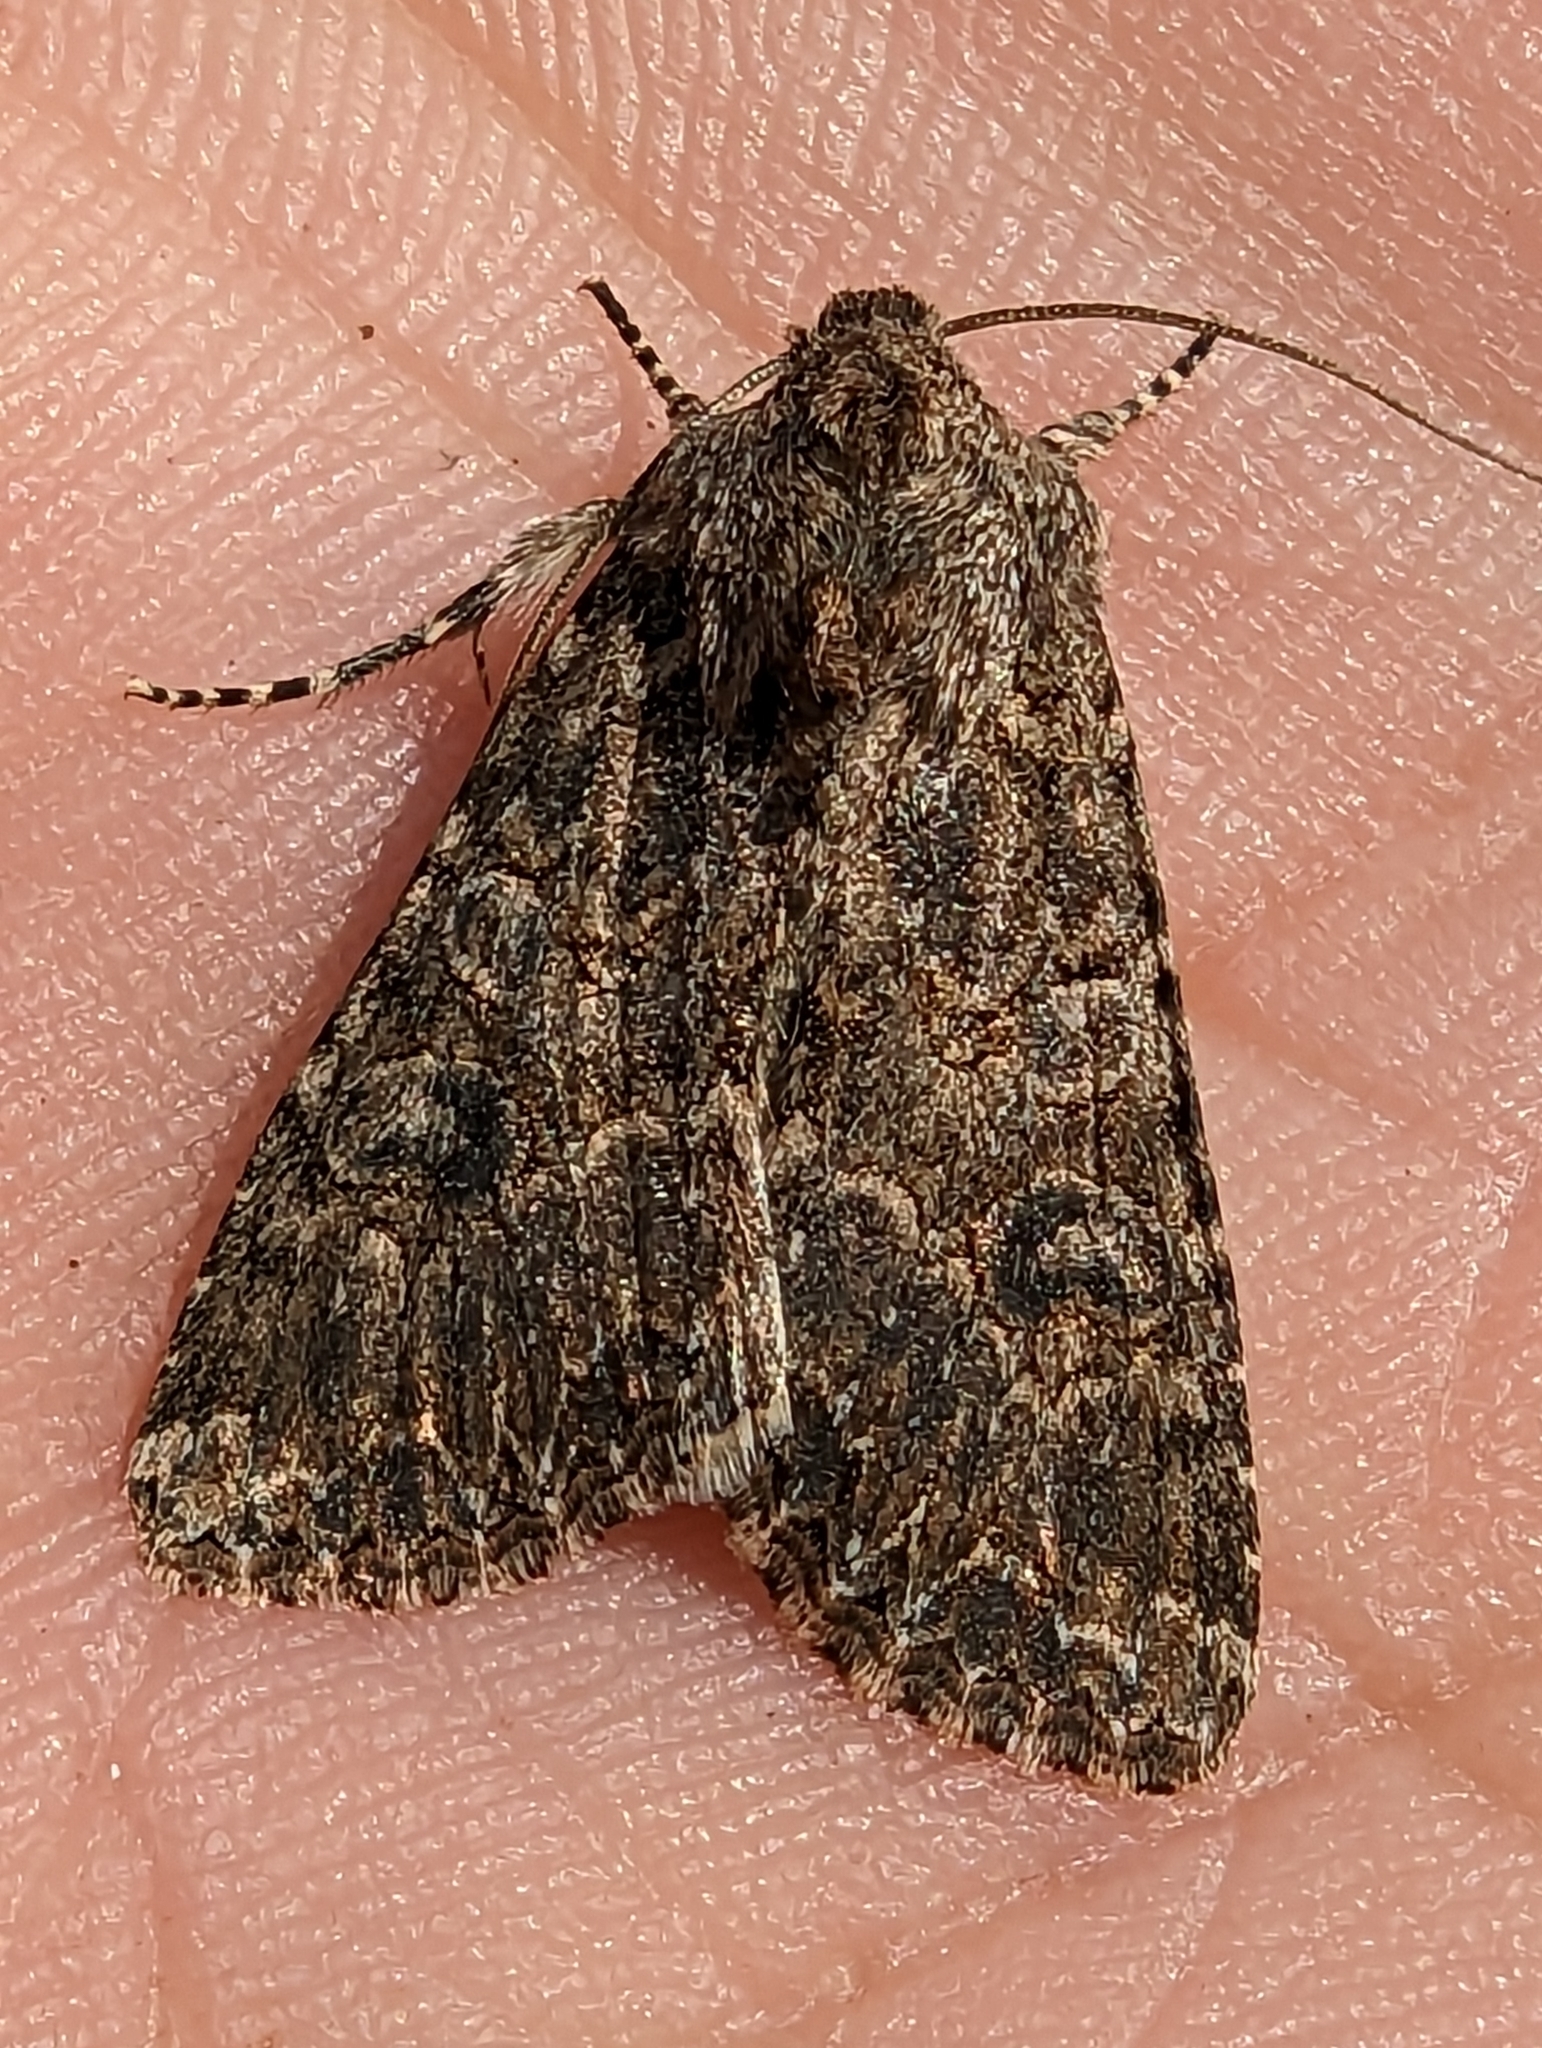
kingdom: Animalia
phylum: Arthropoda
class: Insecta
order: Lepidoptera
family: Noctuidae
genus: Anarta
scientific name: Anarta trifolii
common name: Clover cutworm moth
